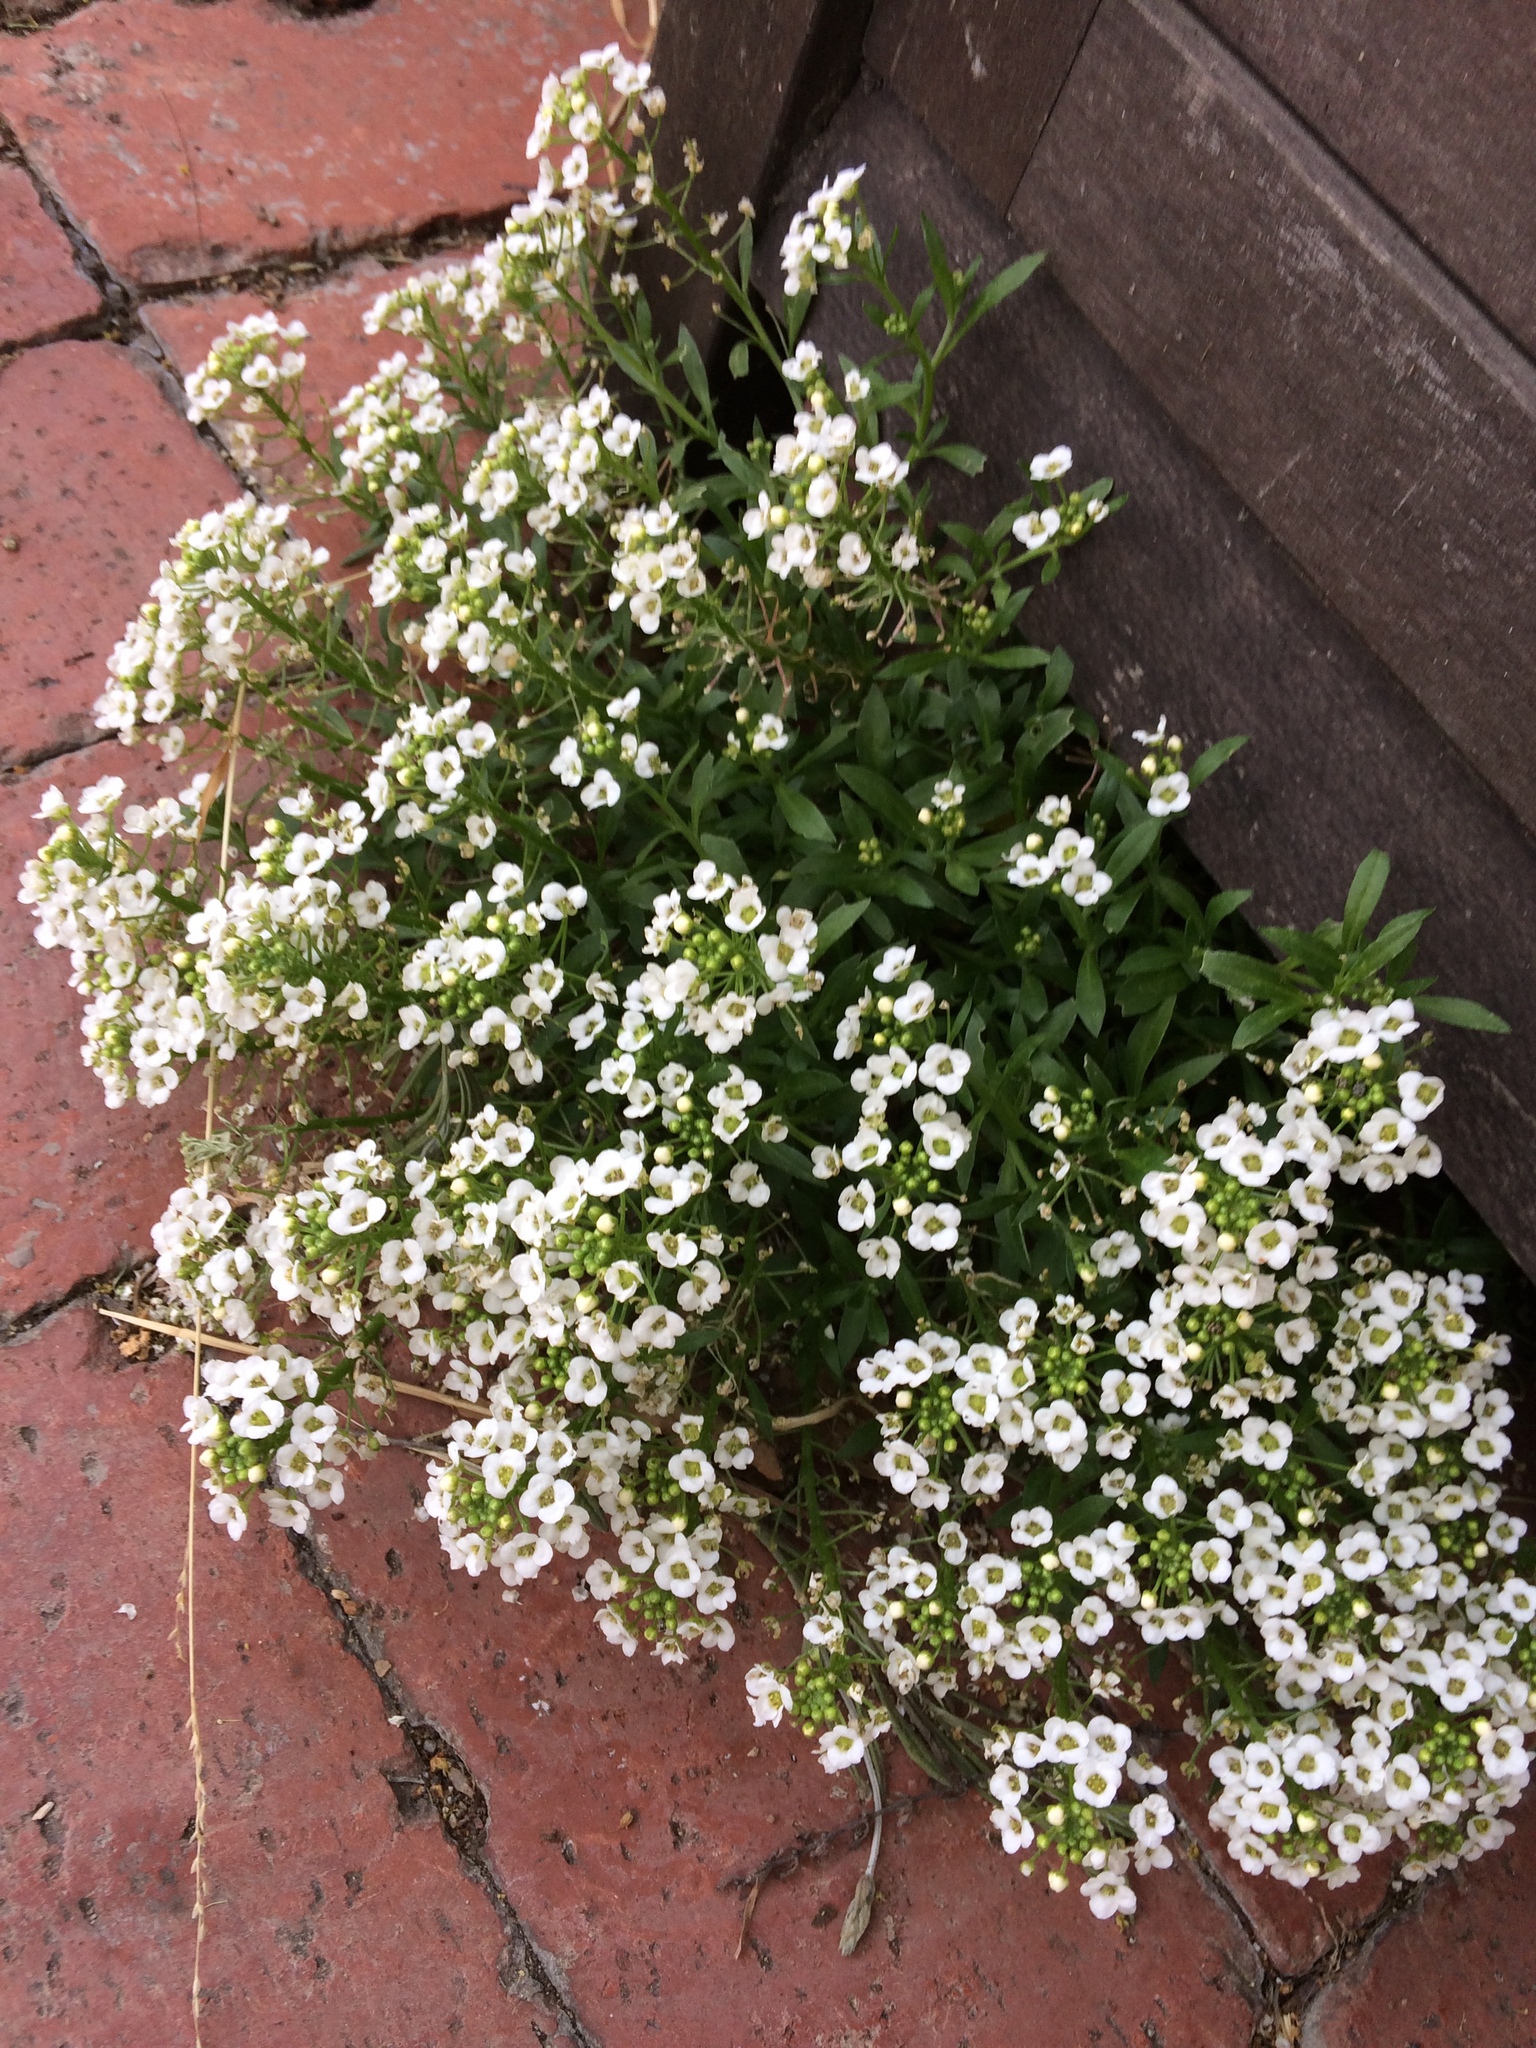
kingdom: Plantae
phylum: Tracheophyta
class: Magnoliopsida
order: Brassicales
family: Brassicaceae
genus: Lobularia
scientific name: Lobularia maritima
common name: Sweet alison
